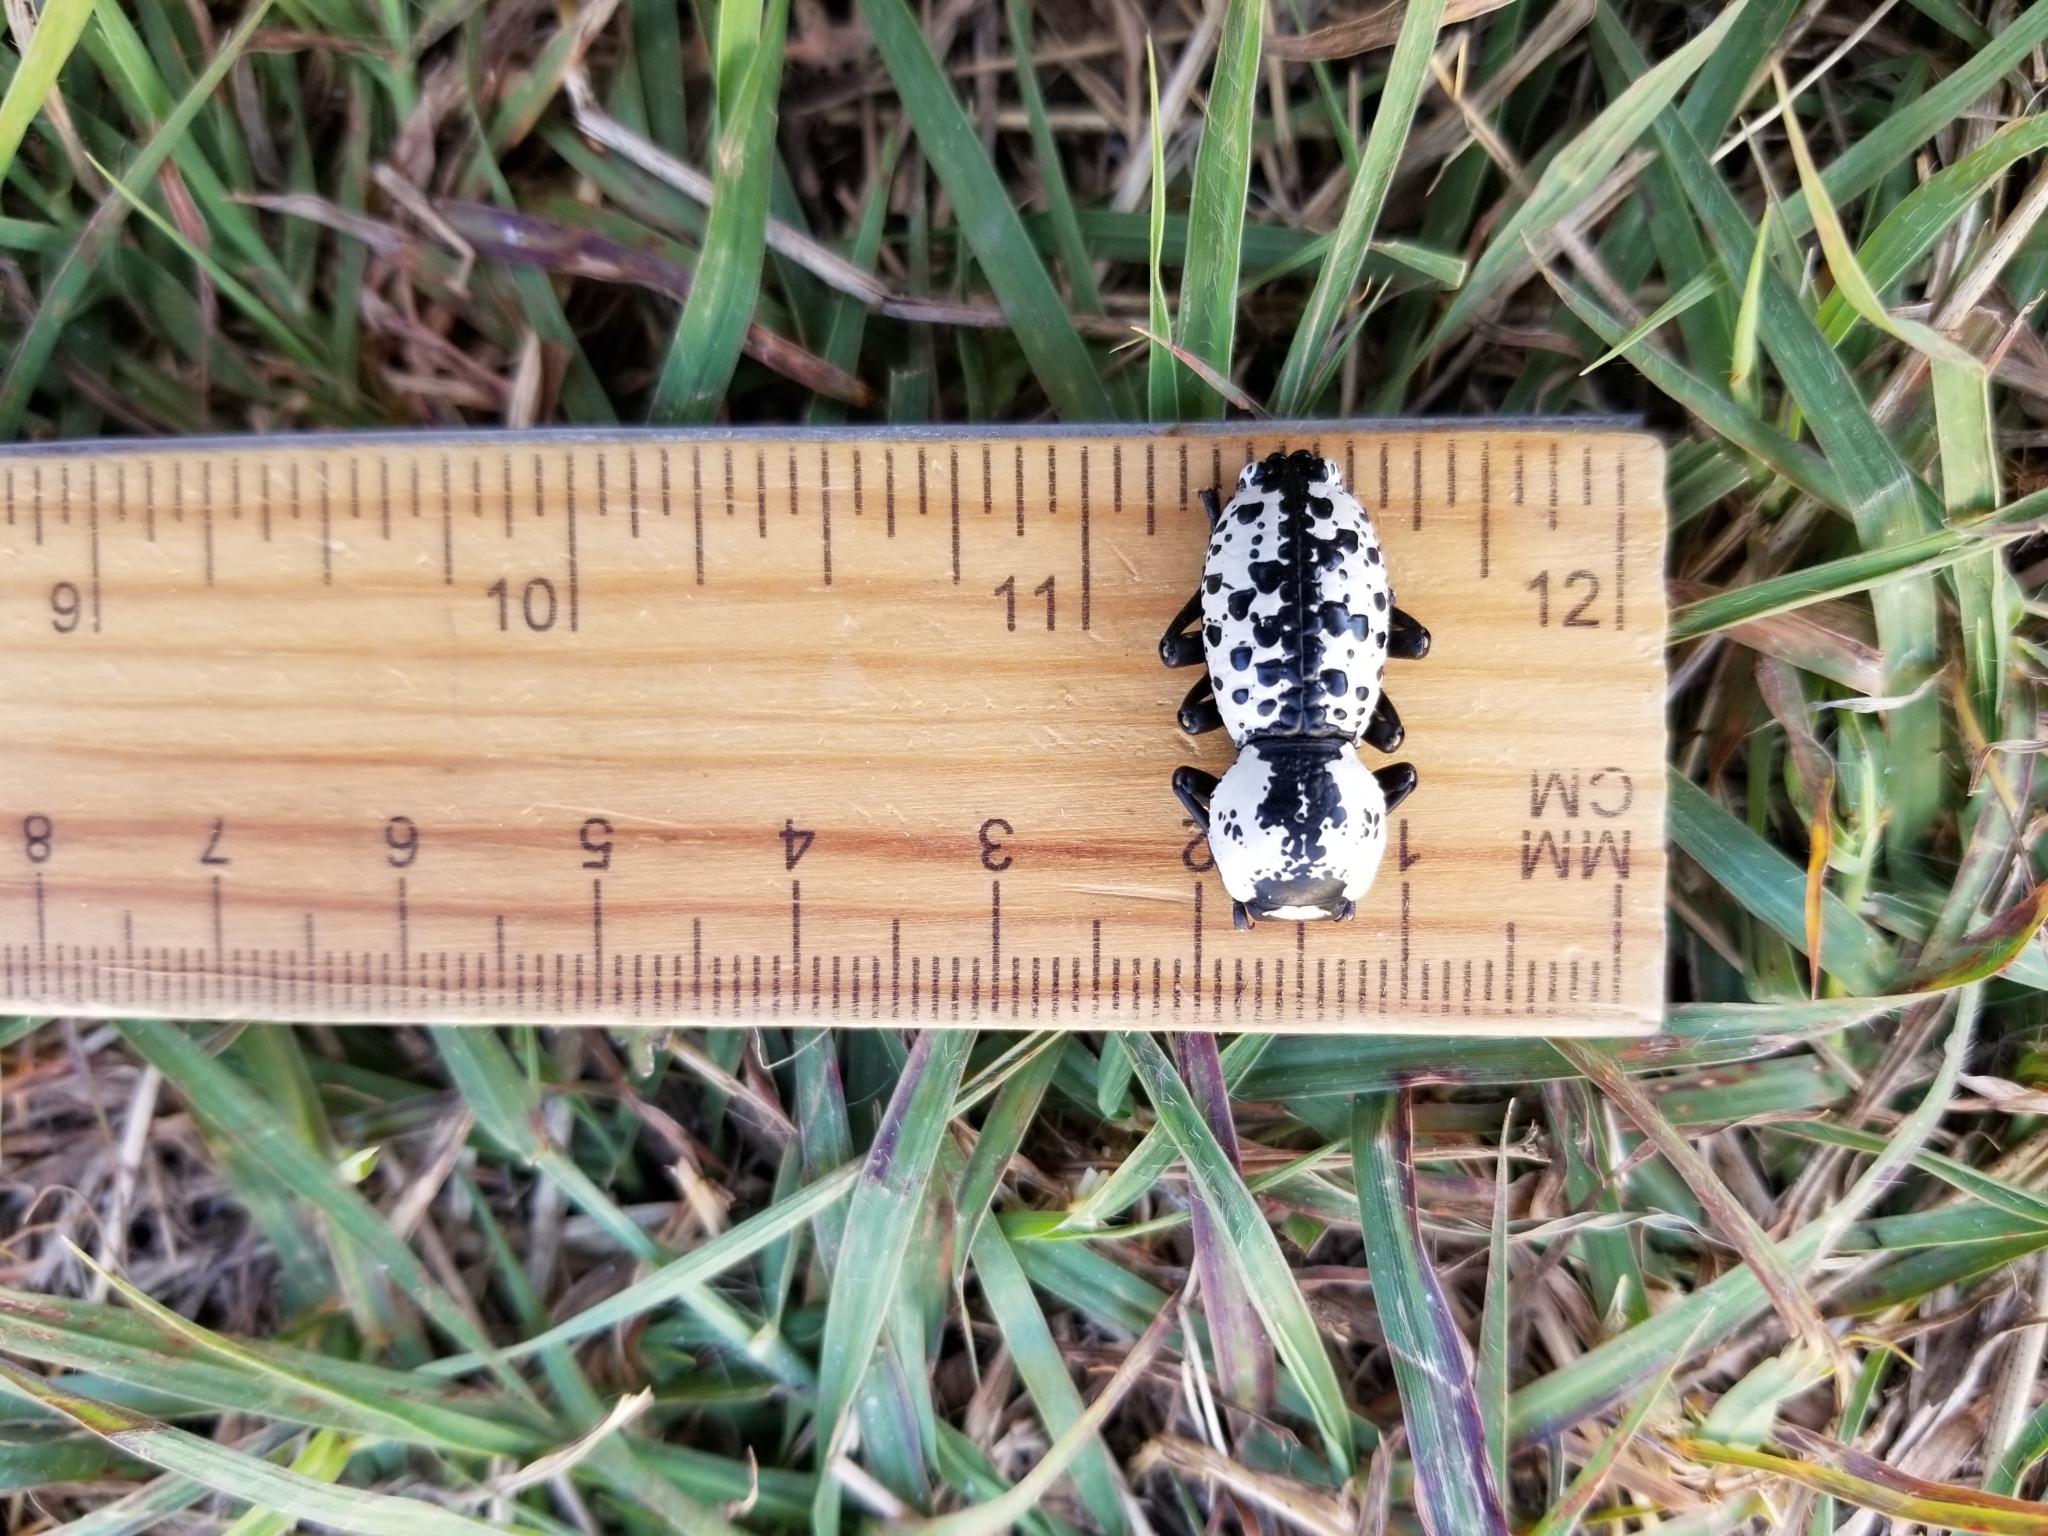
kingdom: Animalia
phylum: Arthropoda
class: Insecta
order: Coleoptera
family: Zopheridae
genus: Zopherus
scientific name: Zopherus nodulosus
